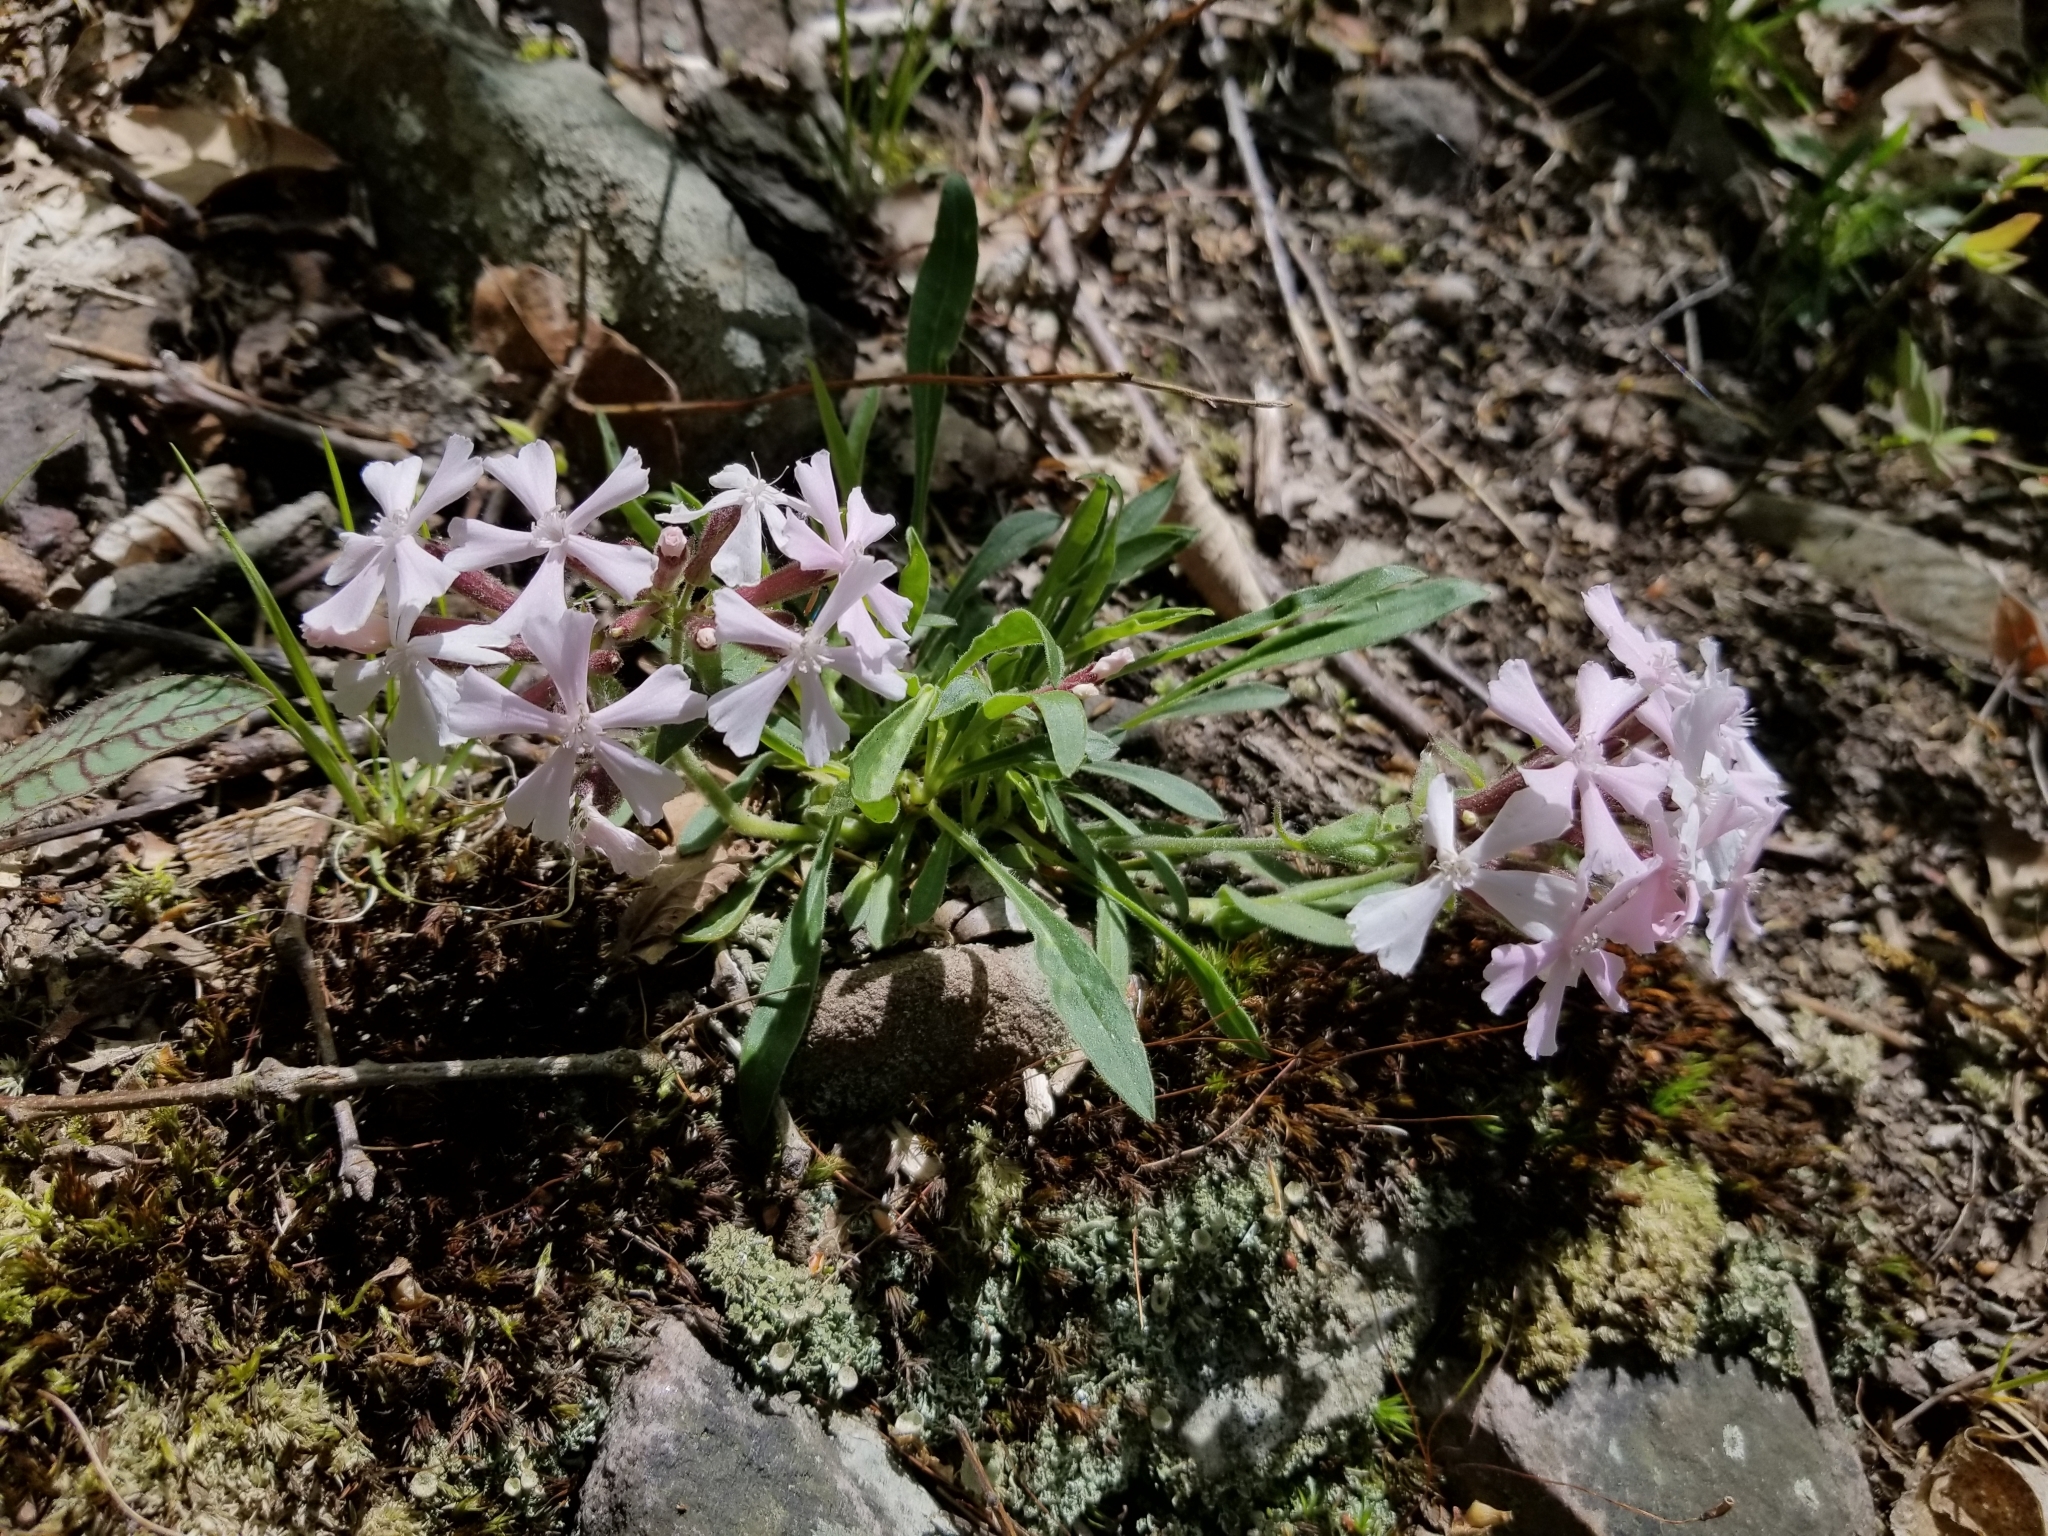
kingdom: Plantae
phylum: Tracheophyta
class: Magnoliopsida
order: Caryophyllales
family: Caryophyllaceae
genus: Silene
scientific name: Silene caroliniana
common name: Sticky catchfly
